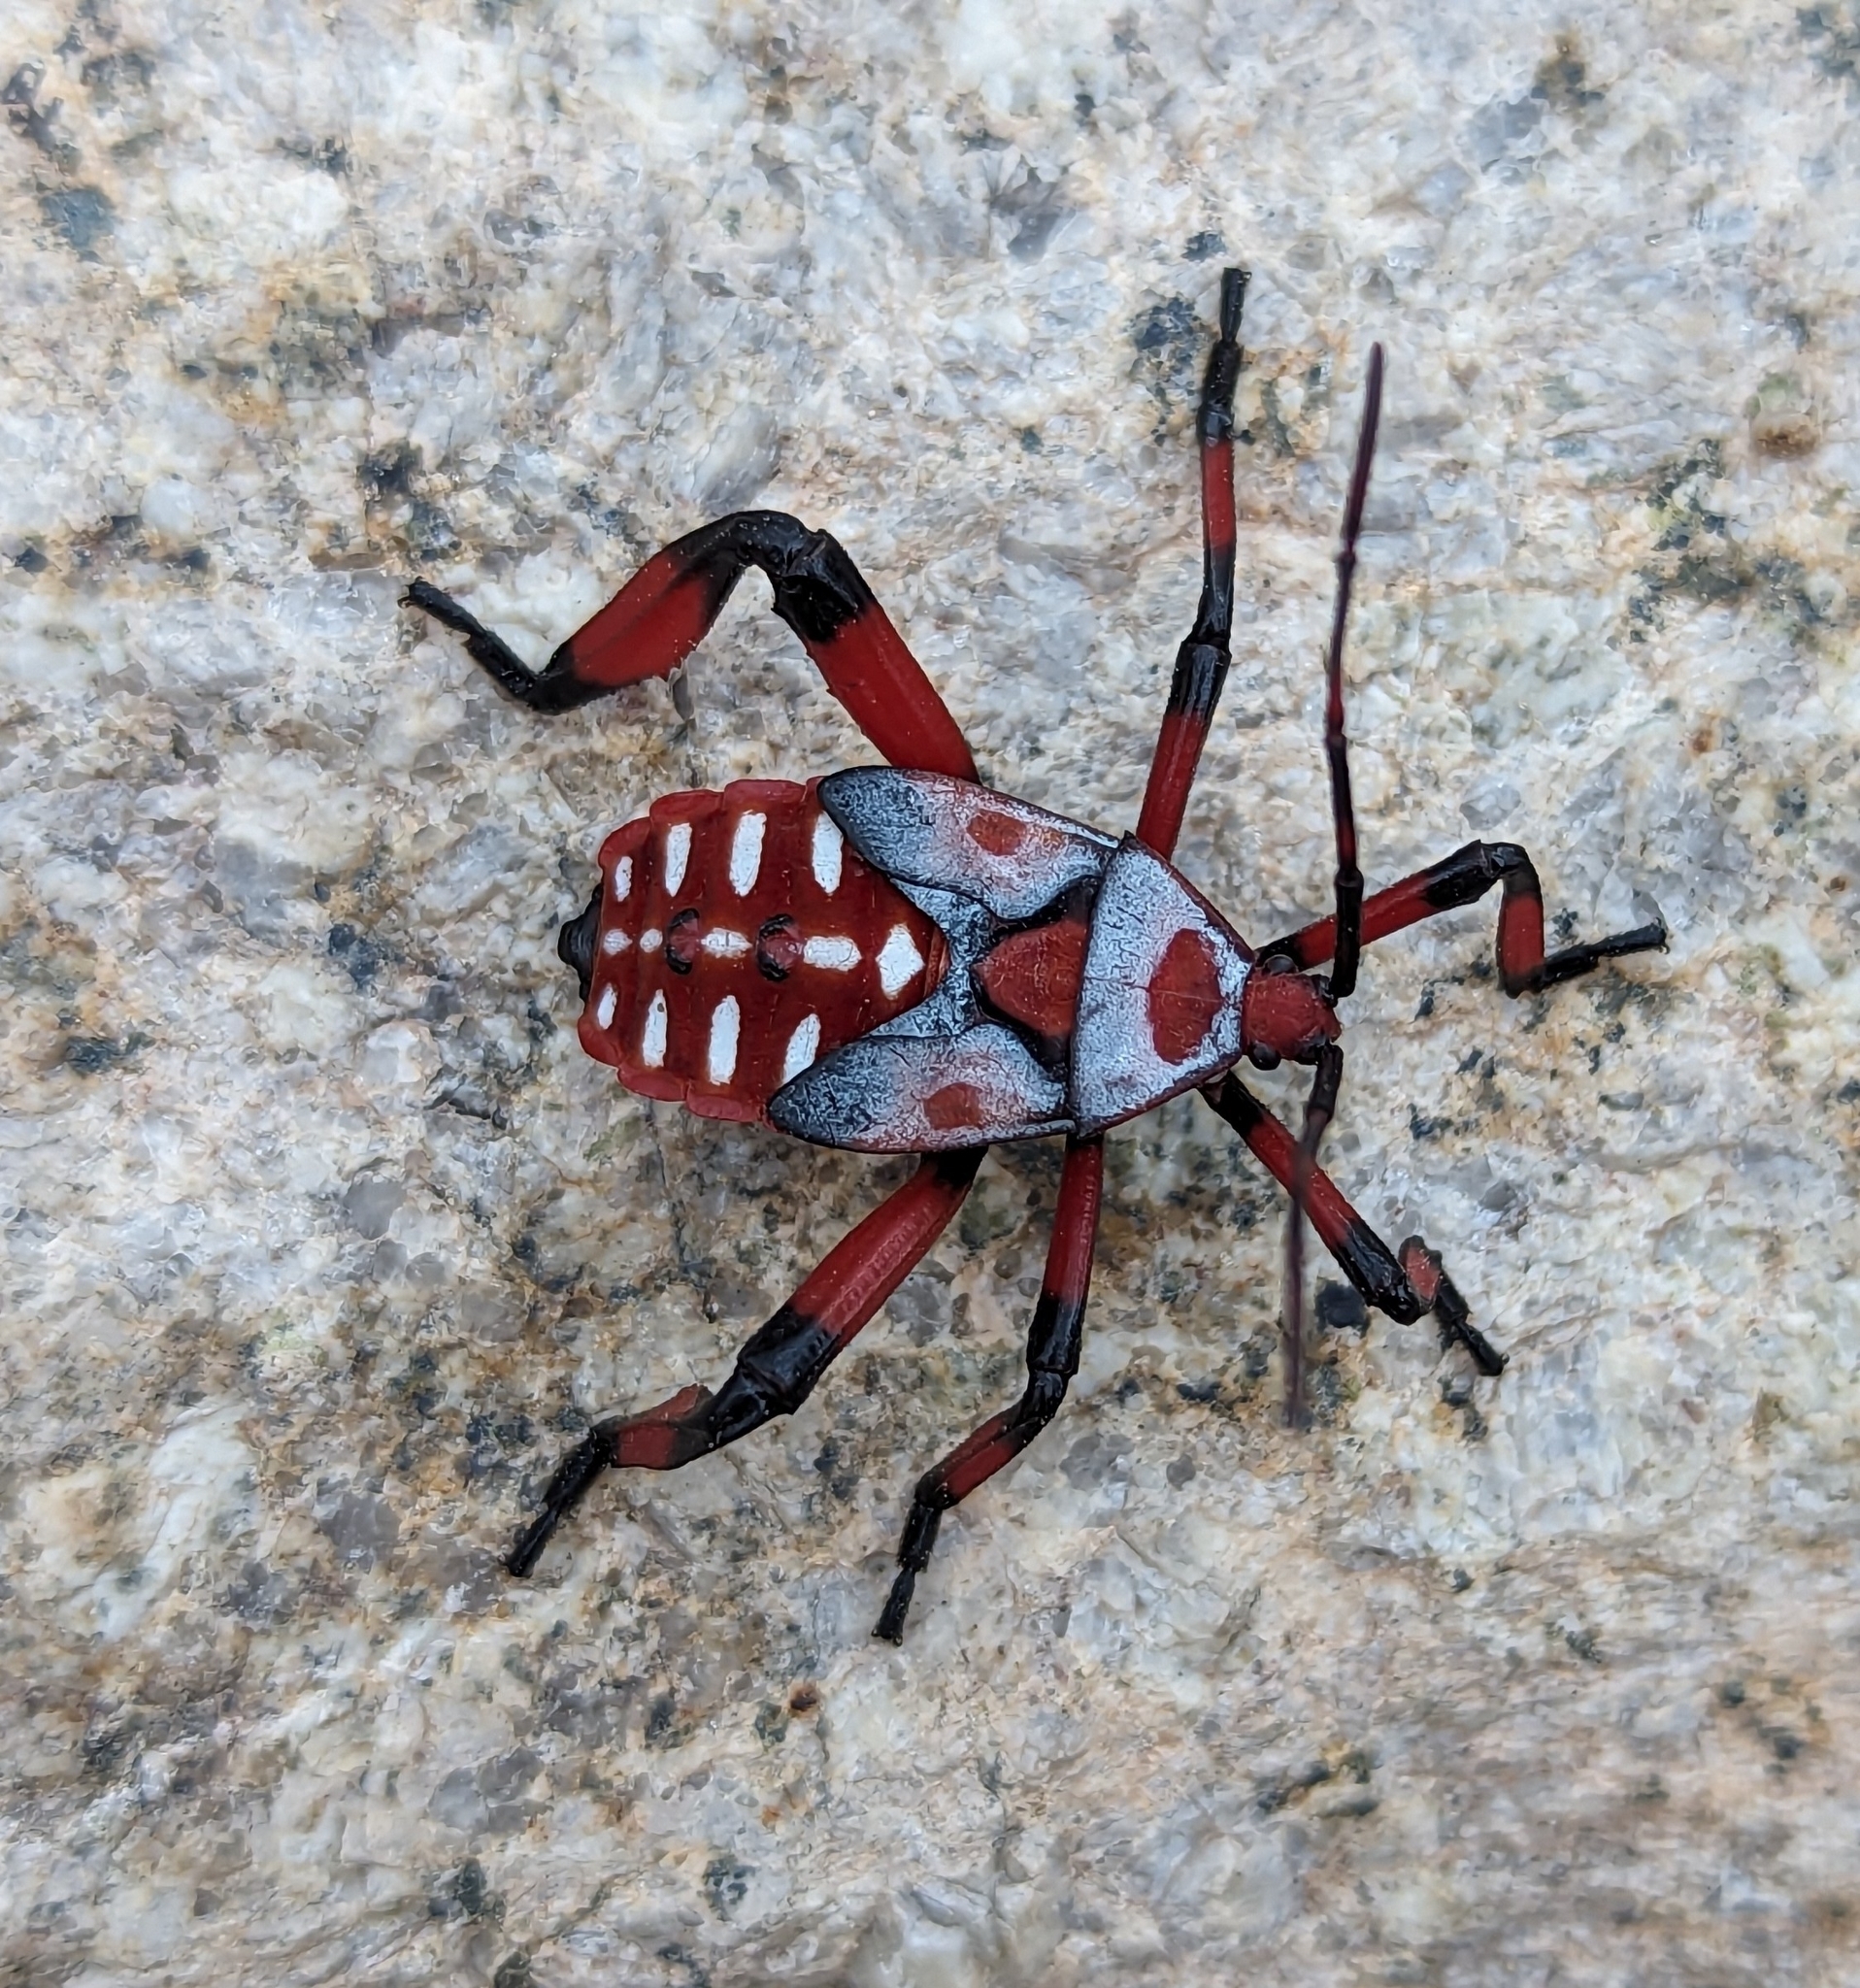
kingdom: Animalia
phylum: Arthropoda
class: Insecta
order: Hemiptera
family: Coreidae
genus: Thasus
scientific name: Thasus neocalifornicus
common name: Giant mesquite bug
